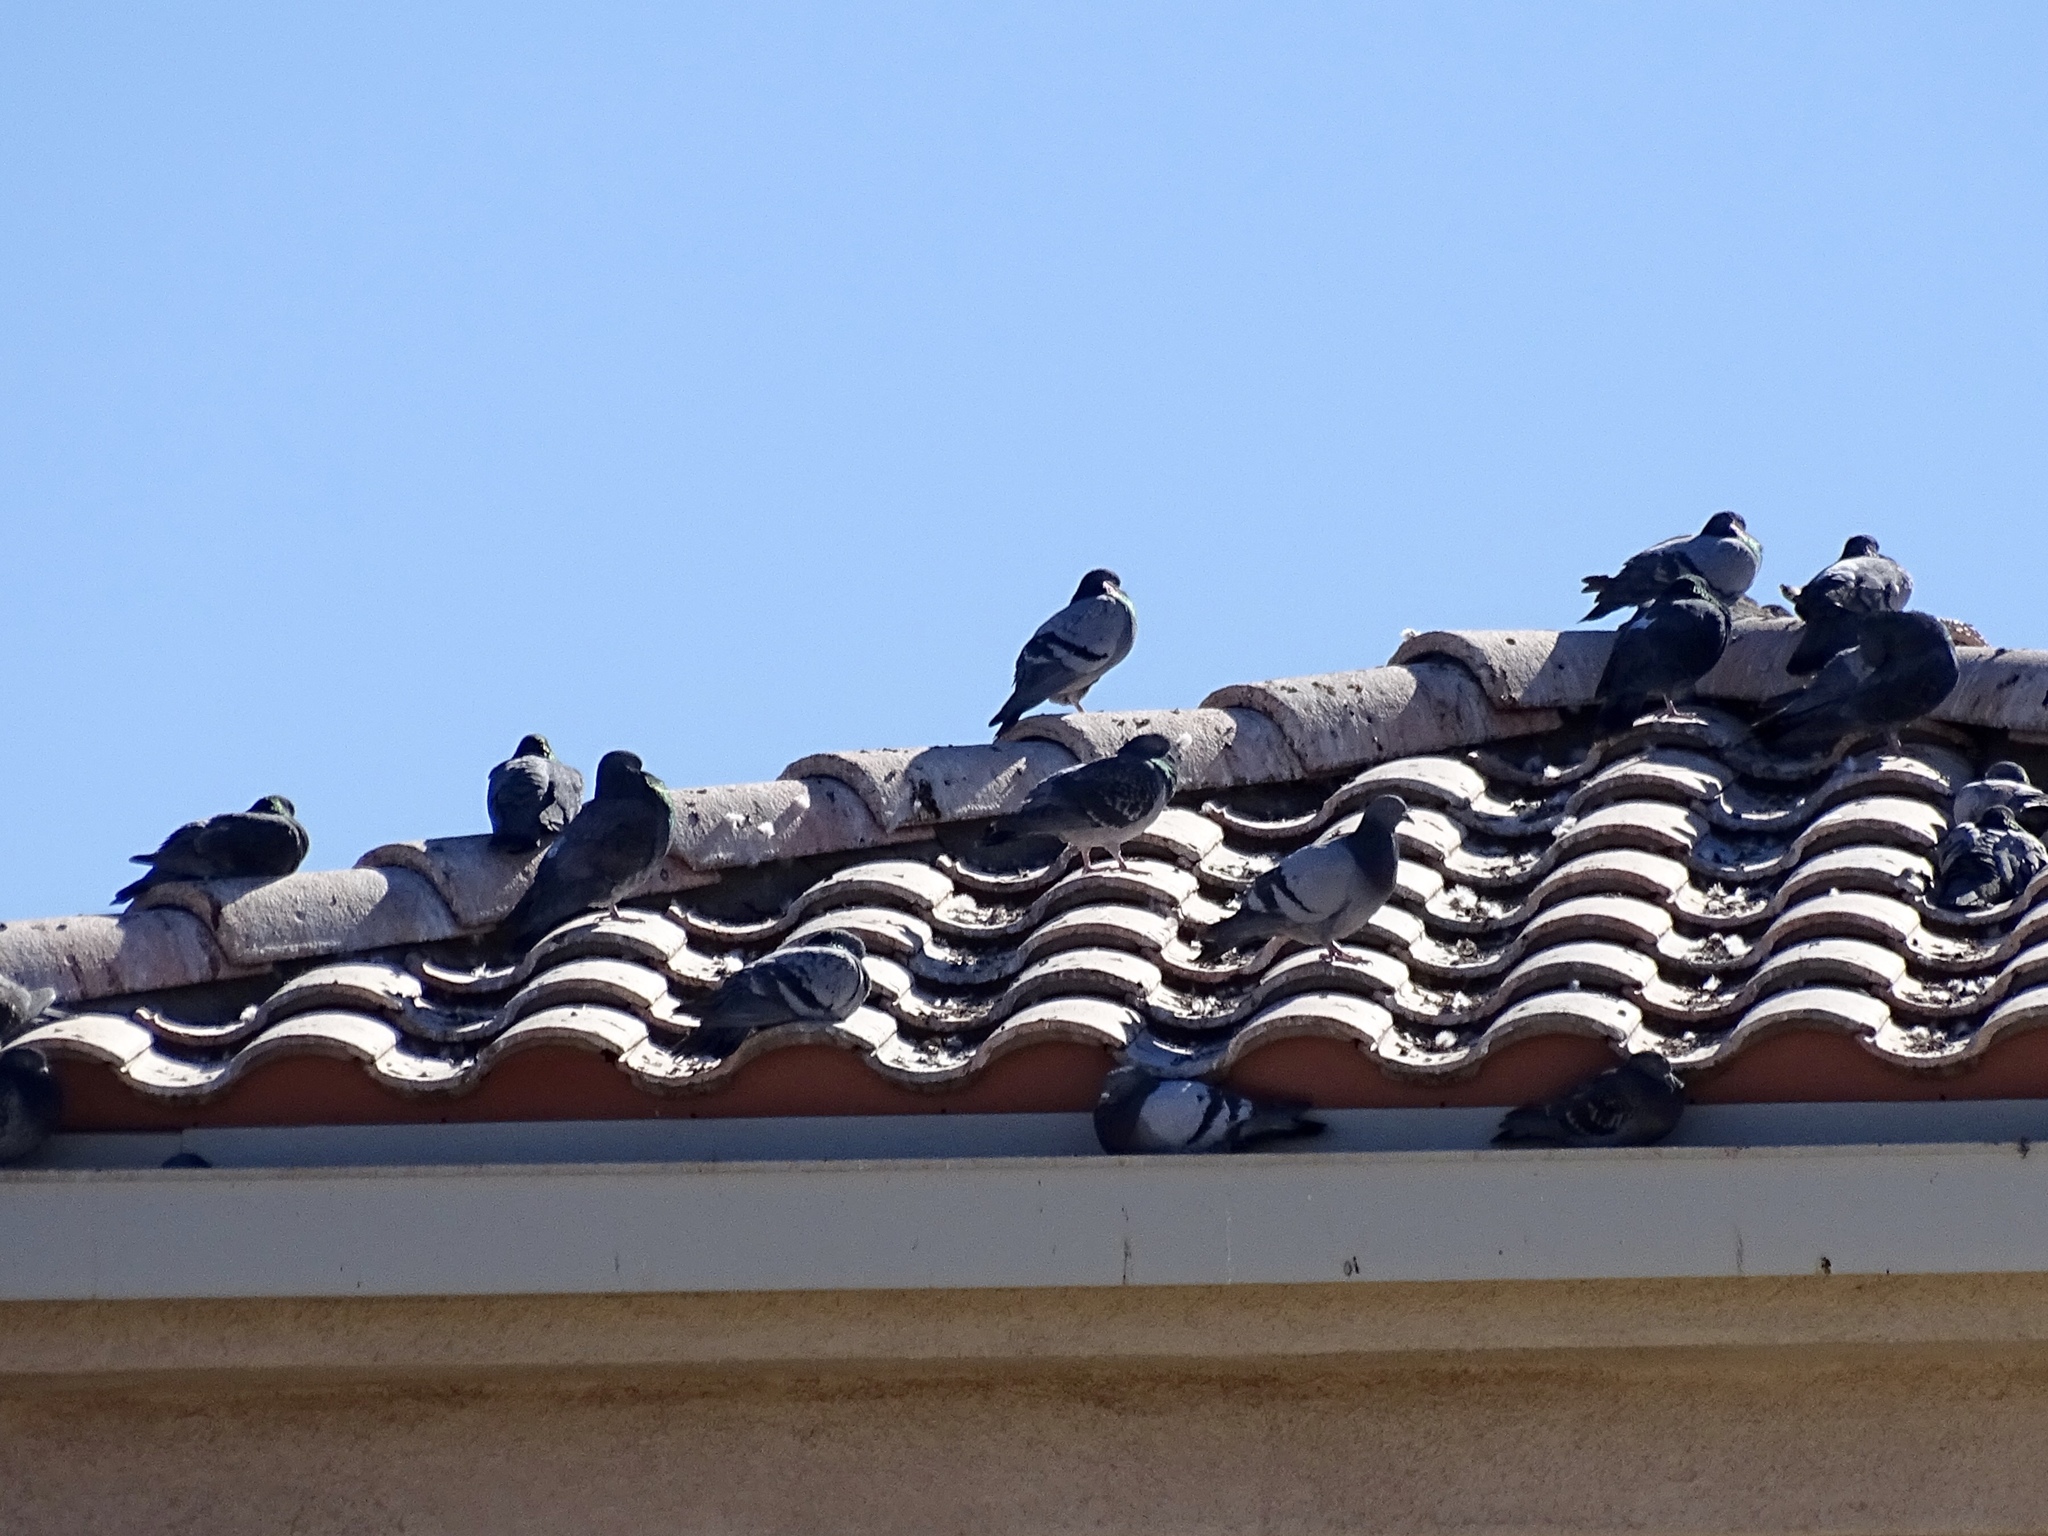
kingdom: Animalia
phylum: Chordata
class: Aves
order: Columbiformes
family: Columbidae
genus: Columba
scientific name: Columba livia
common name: Rock pigeon
